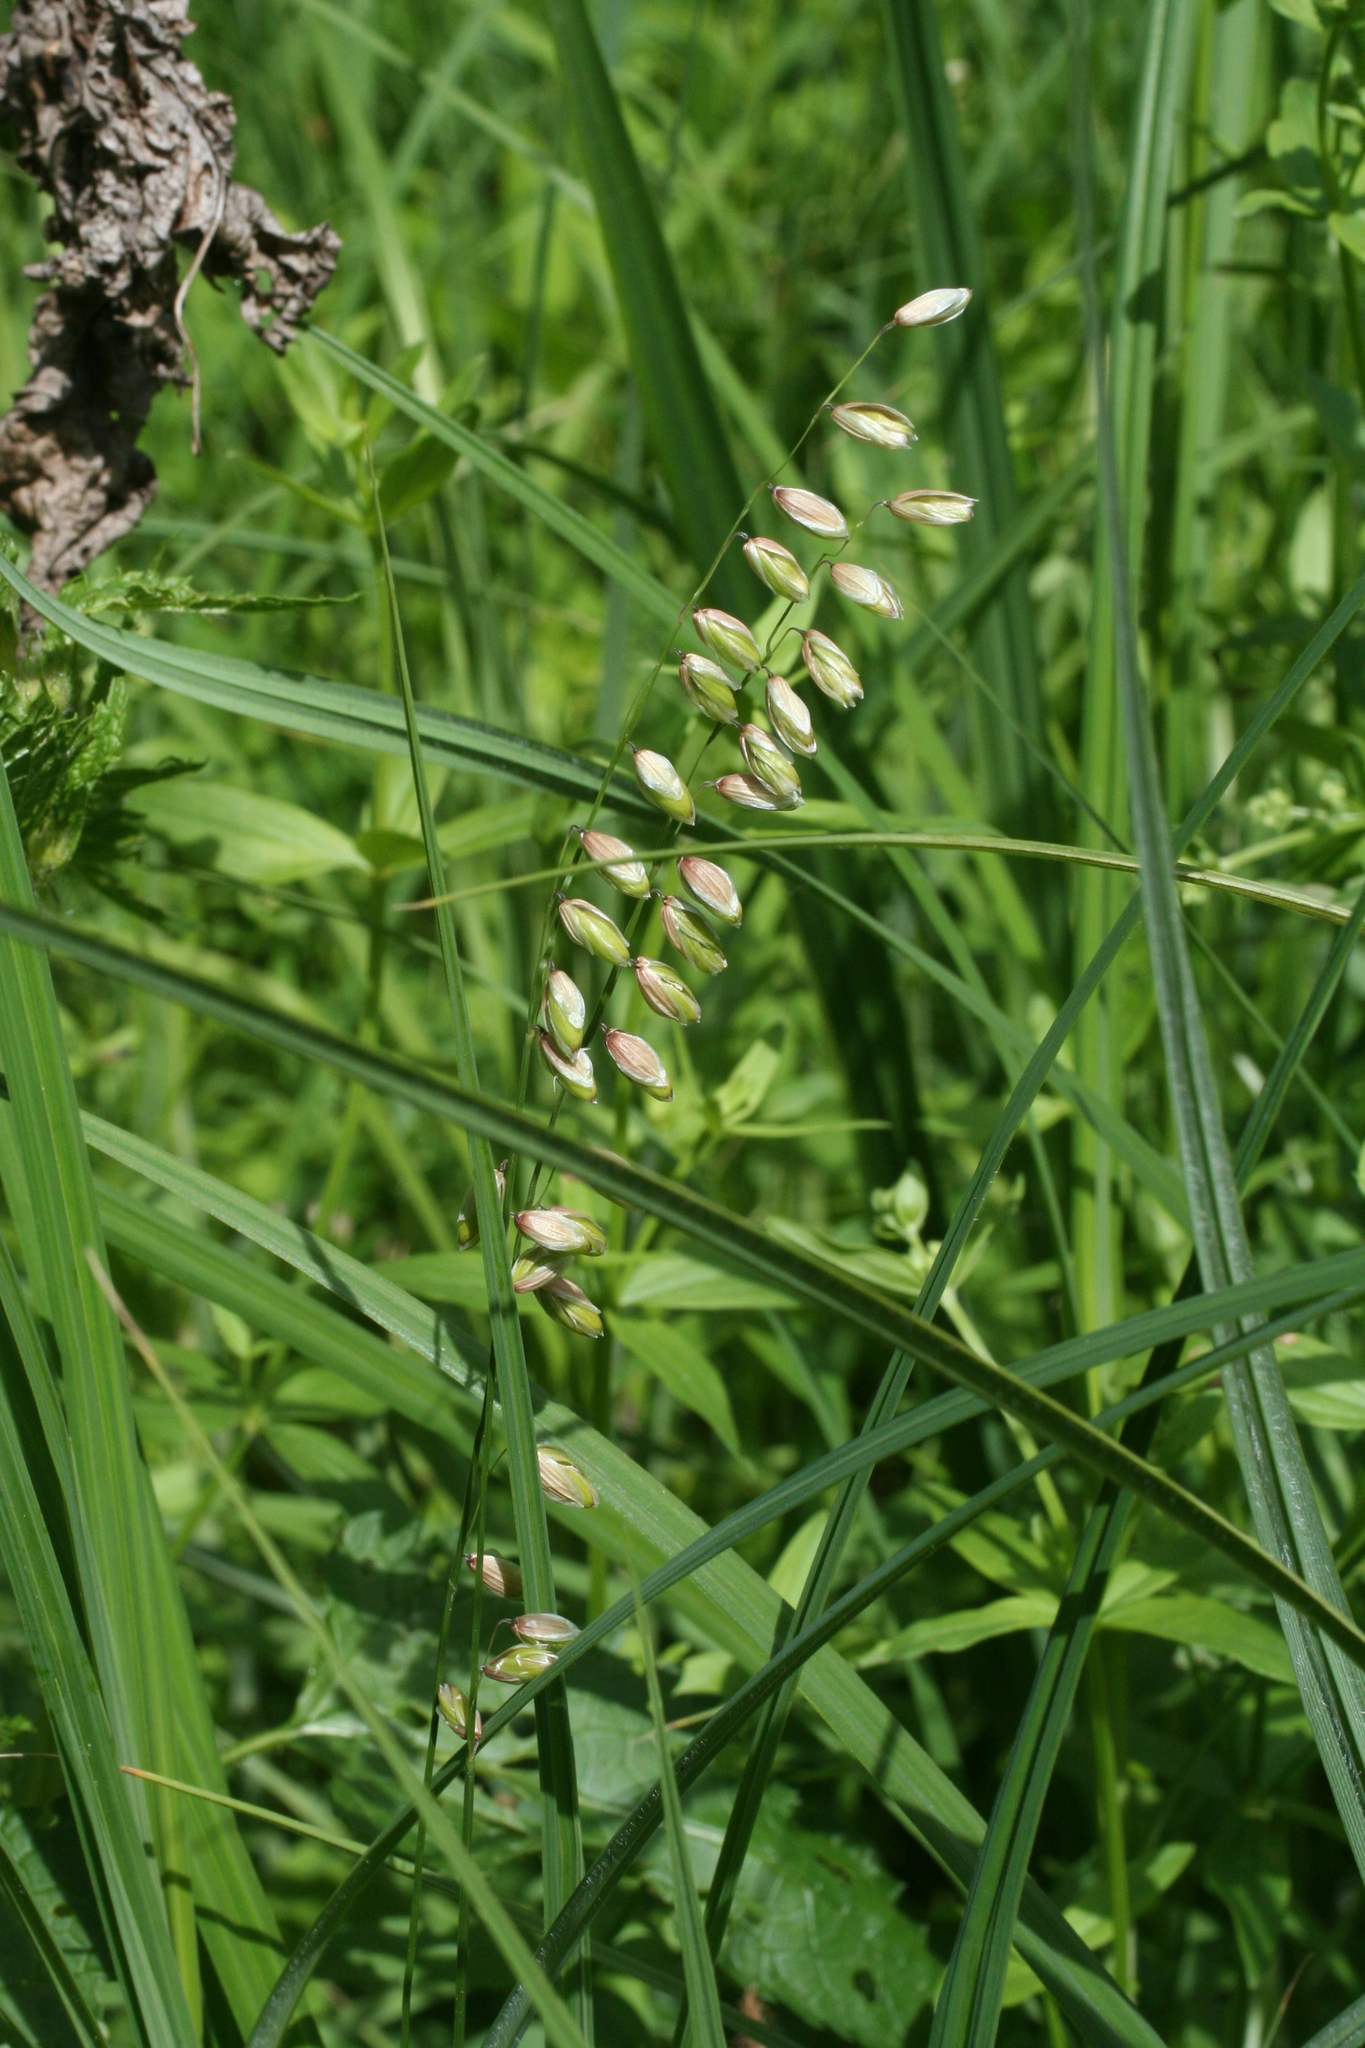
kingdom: Plantae
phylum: Tracheophyta
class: Liliopsida
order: Poales
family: Poaceae
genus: Melica
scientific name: Melica nutans
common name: Mountain melick
